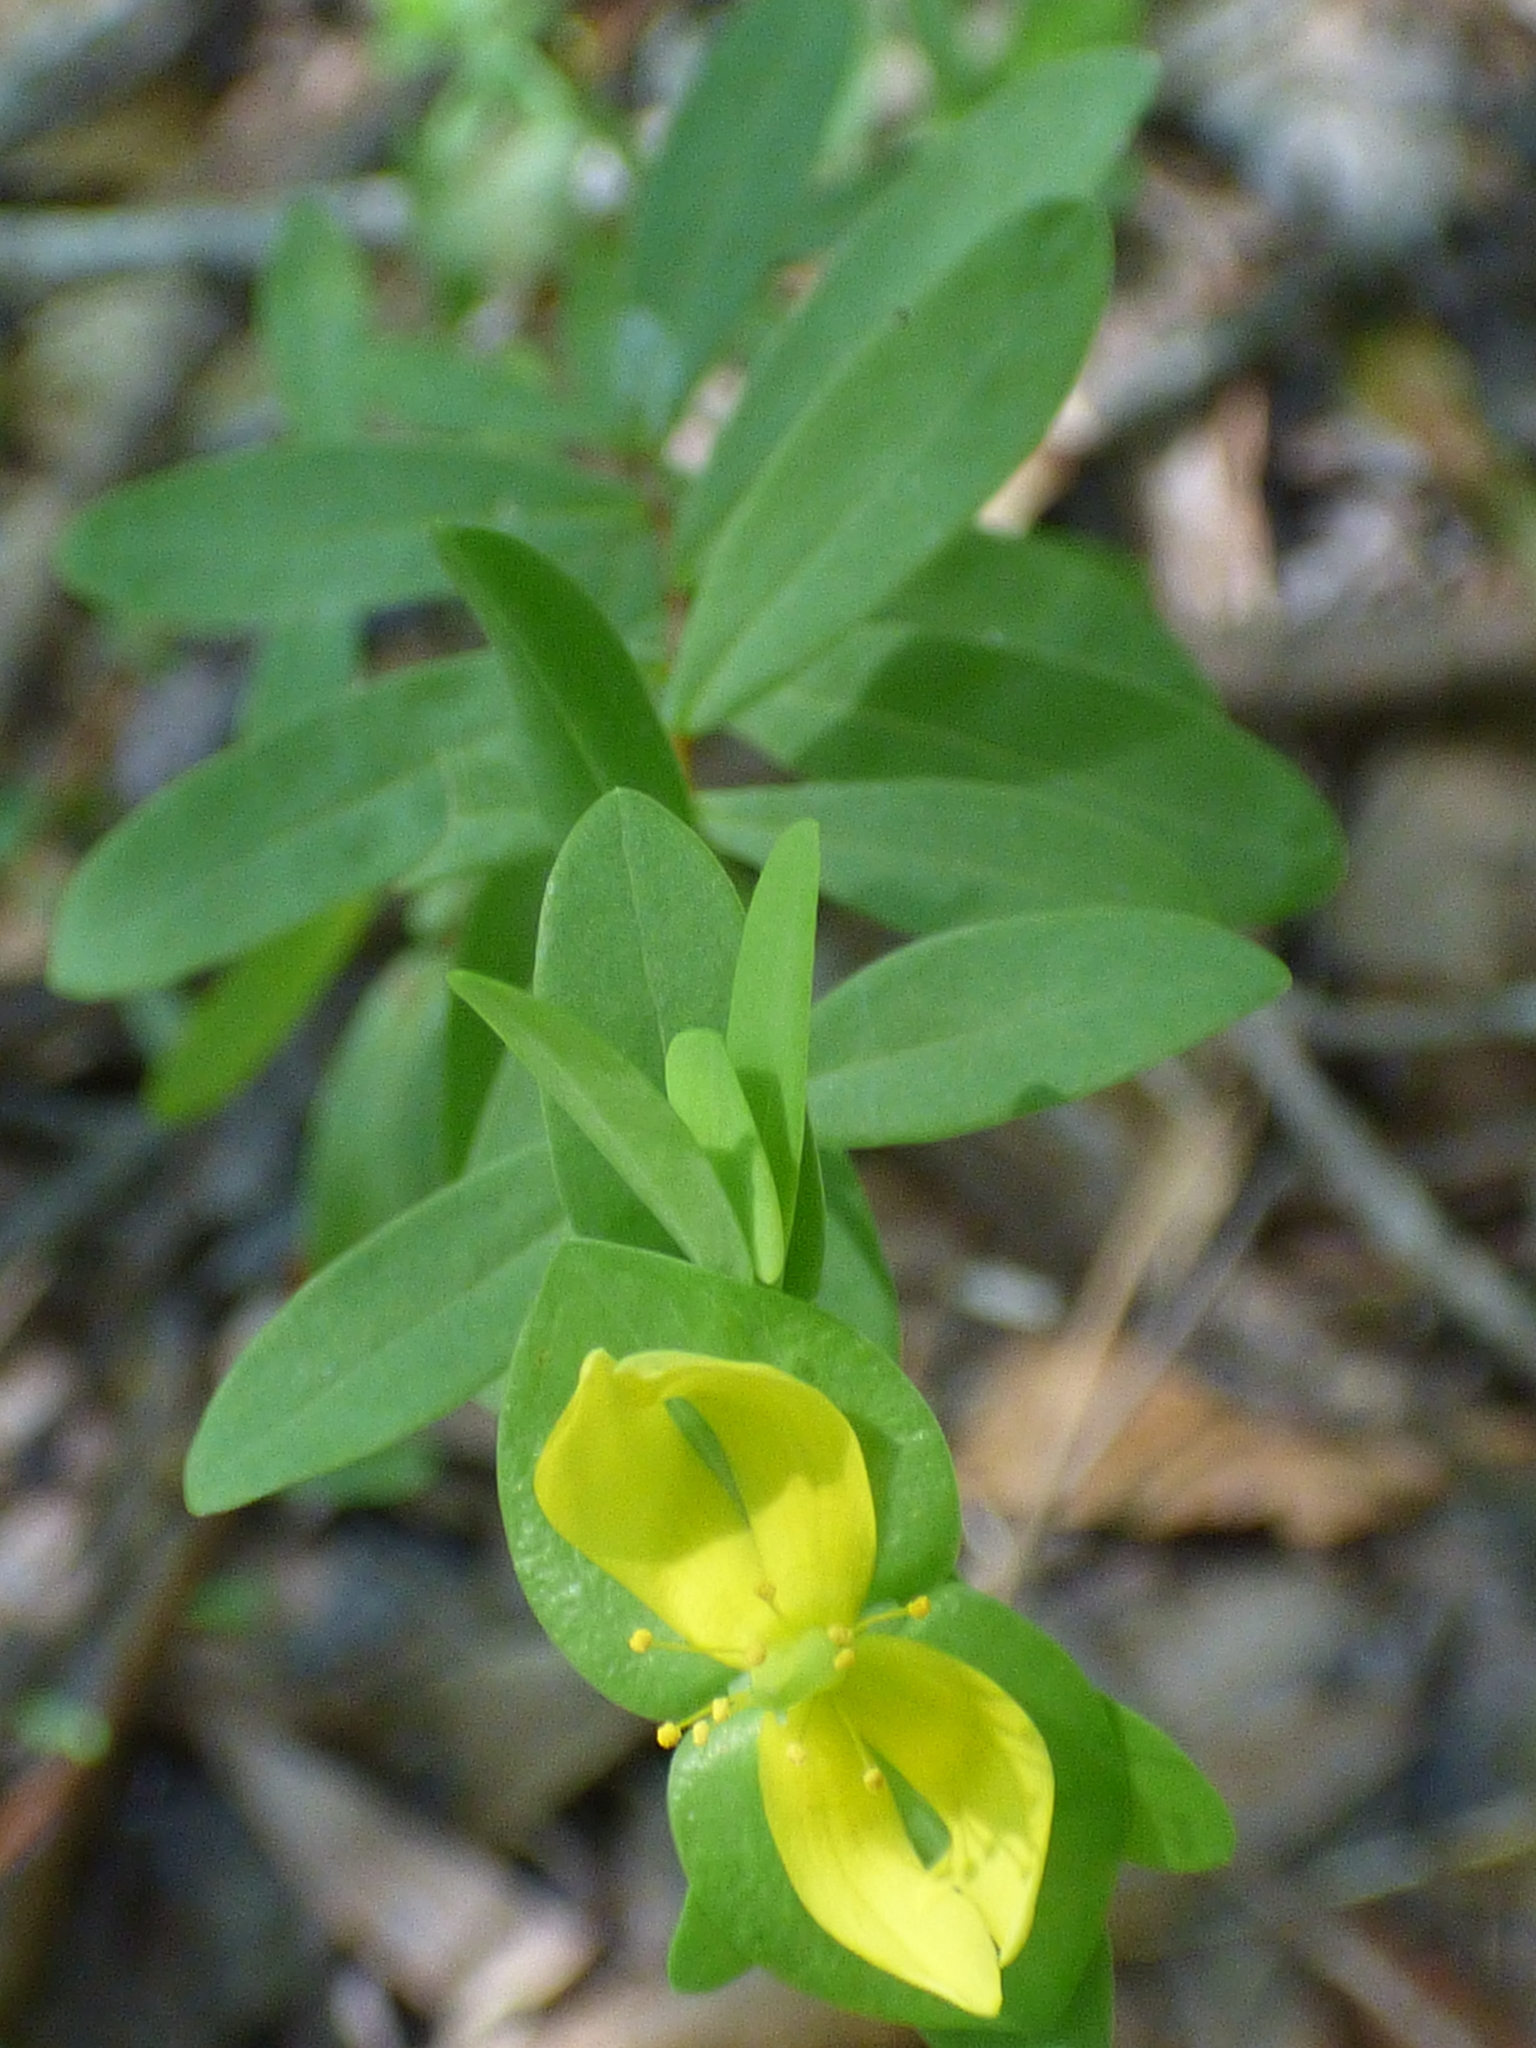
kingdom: Plantae
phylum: Tracheophyta
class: Magnoliopsida
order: Malpighiales
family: Hypericaceae
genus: Hypericum
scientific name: Hypericum hypericoides
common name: St. andrew's cross
